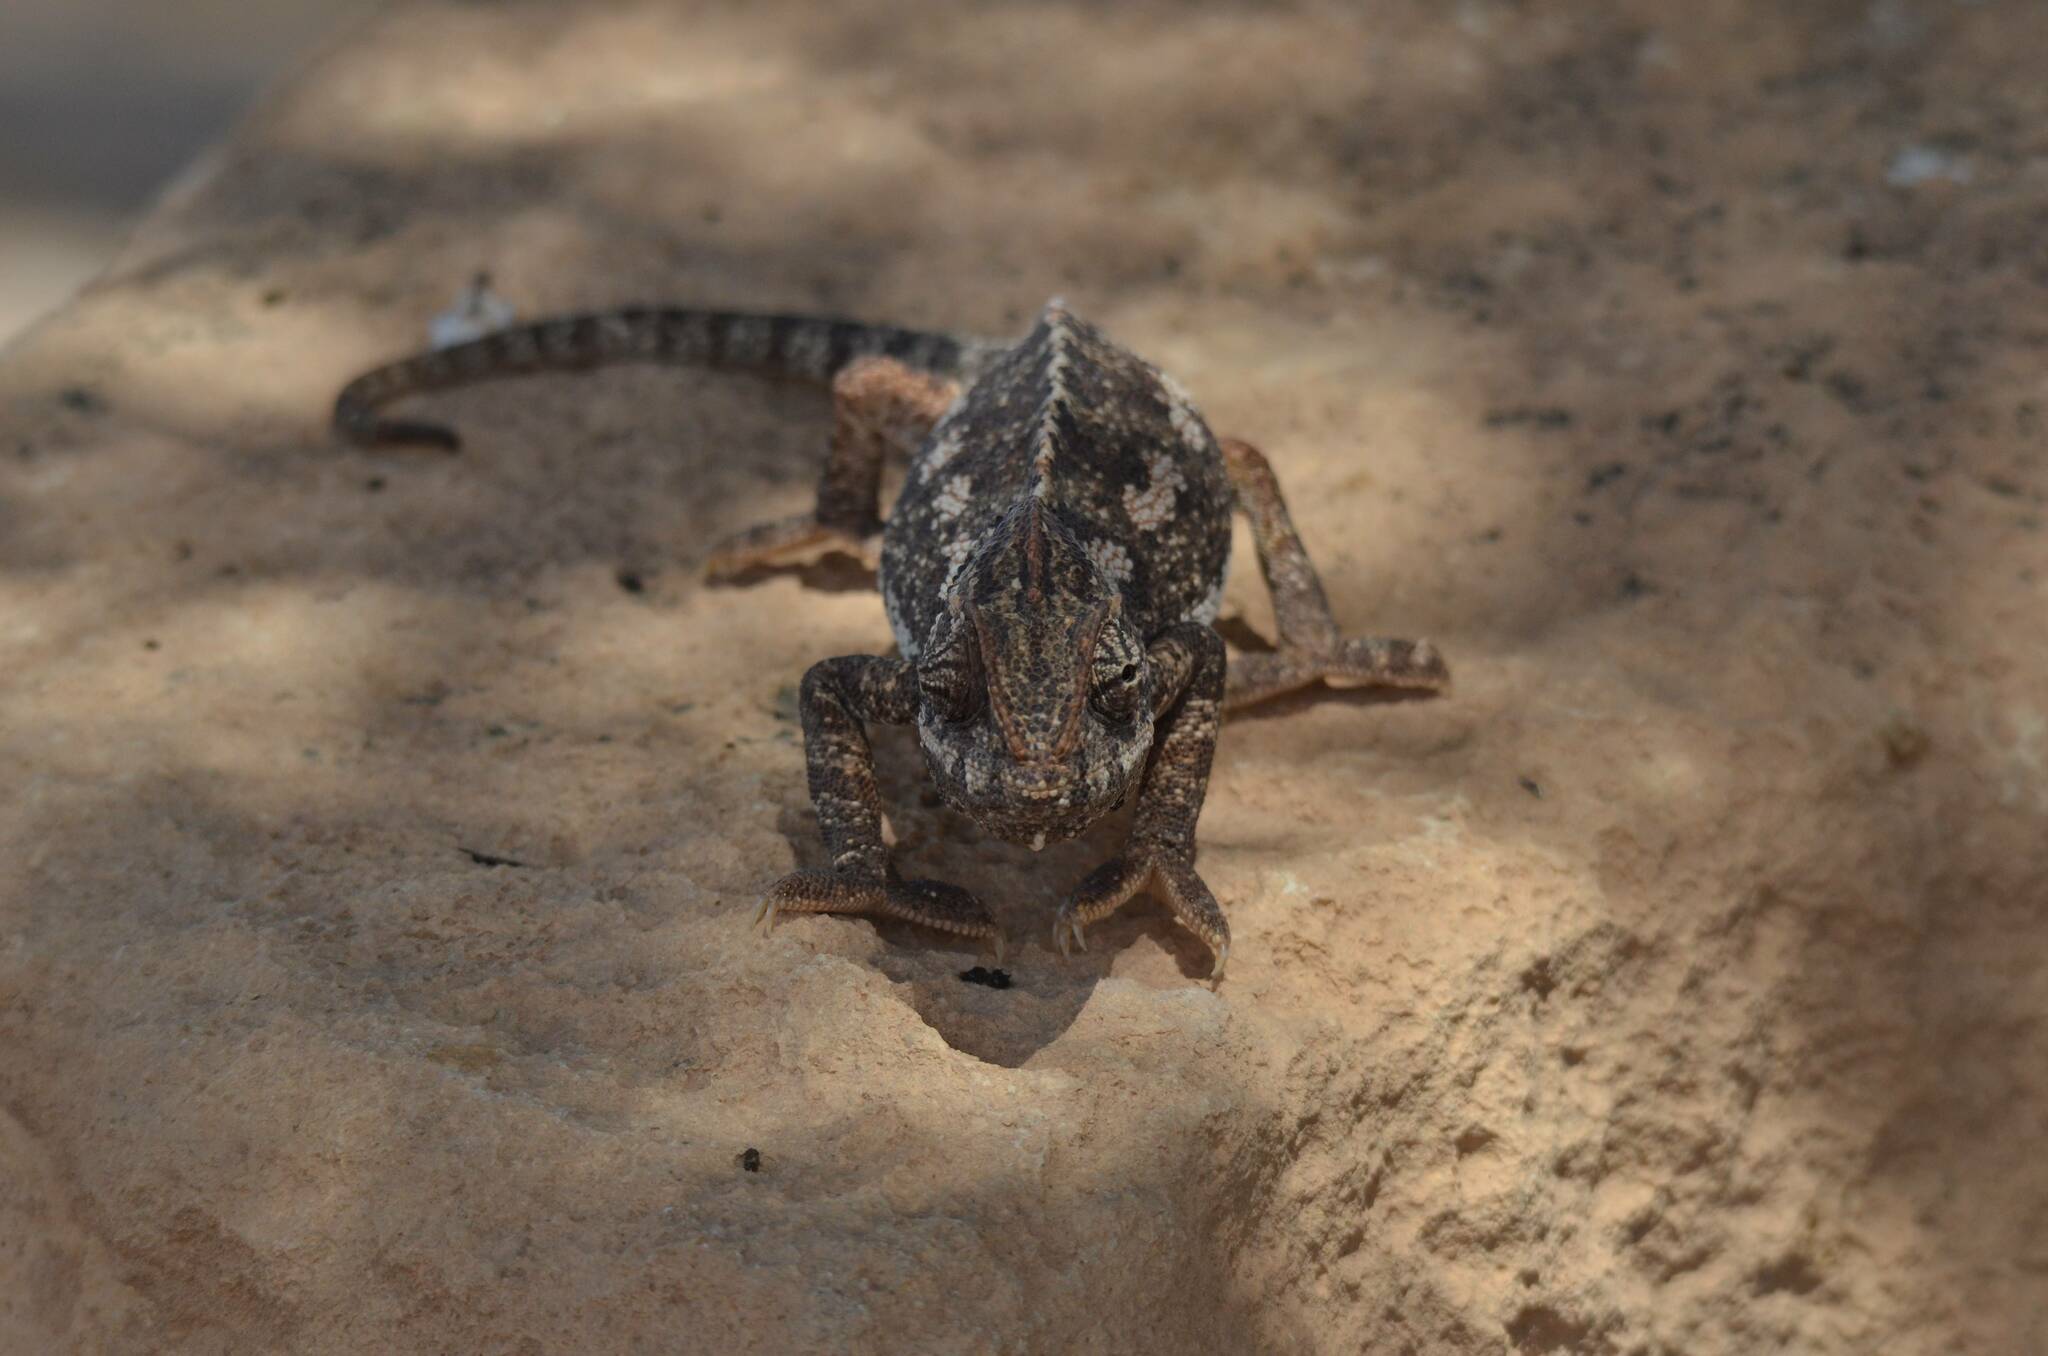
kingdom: Animalia
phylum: Chordata
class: Squamata
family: Chamaeleonidae
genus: Chamaeleo
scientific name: Chamaeleo chamaeleon
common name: Mediterranean chameleon
